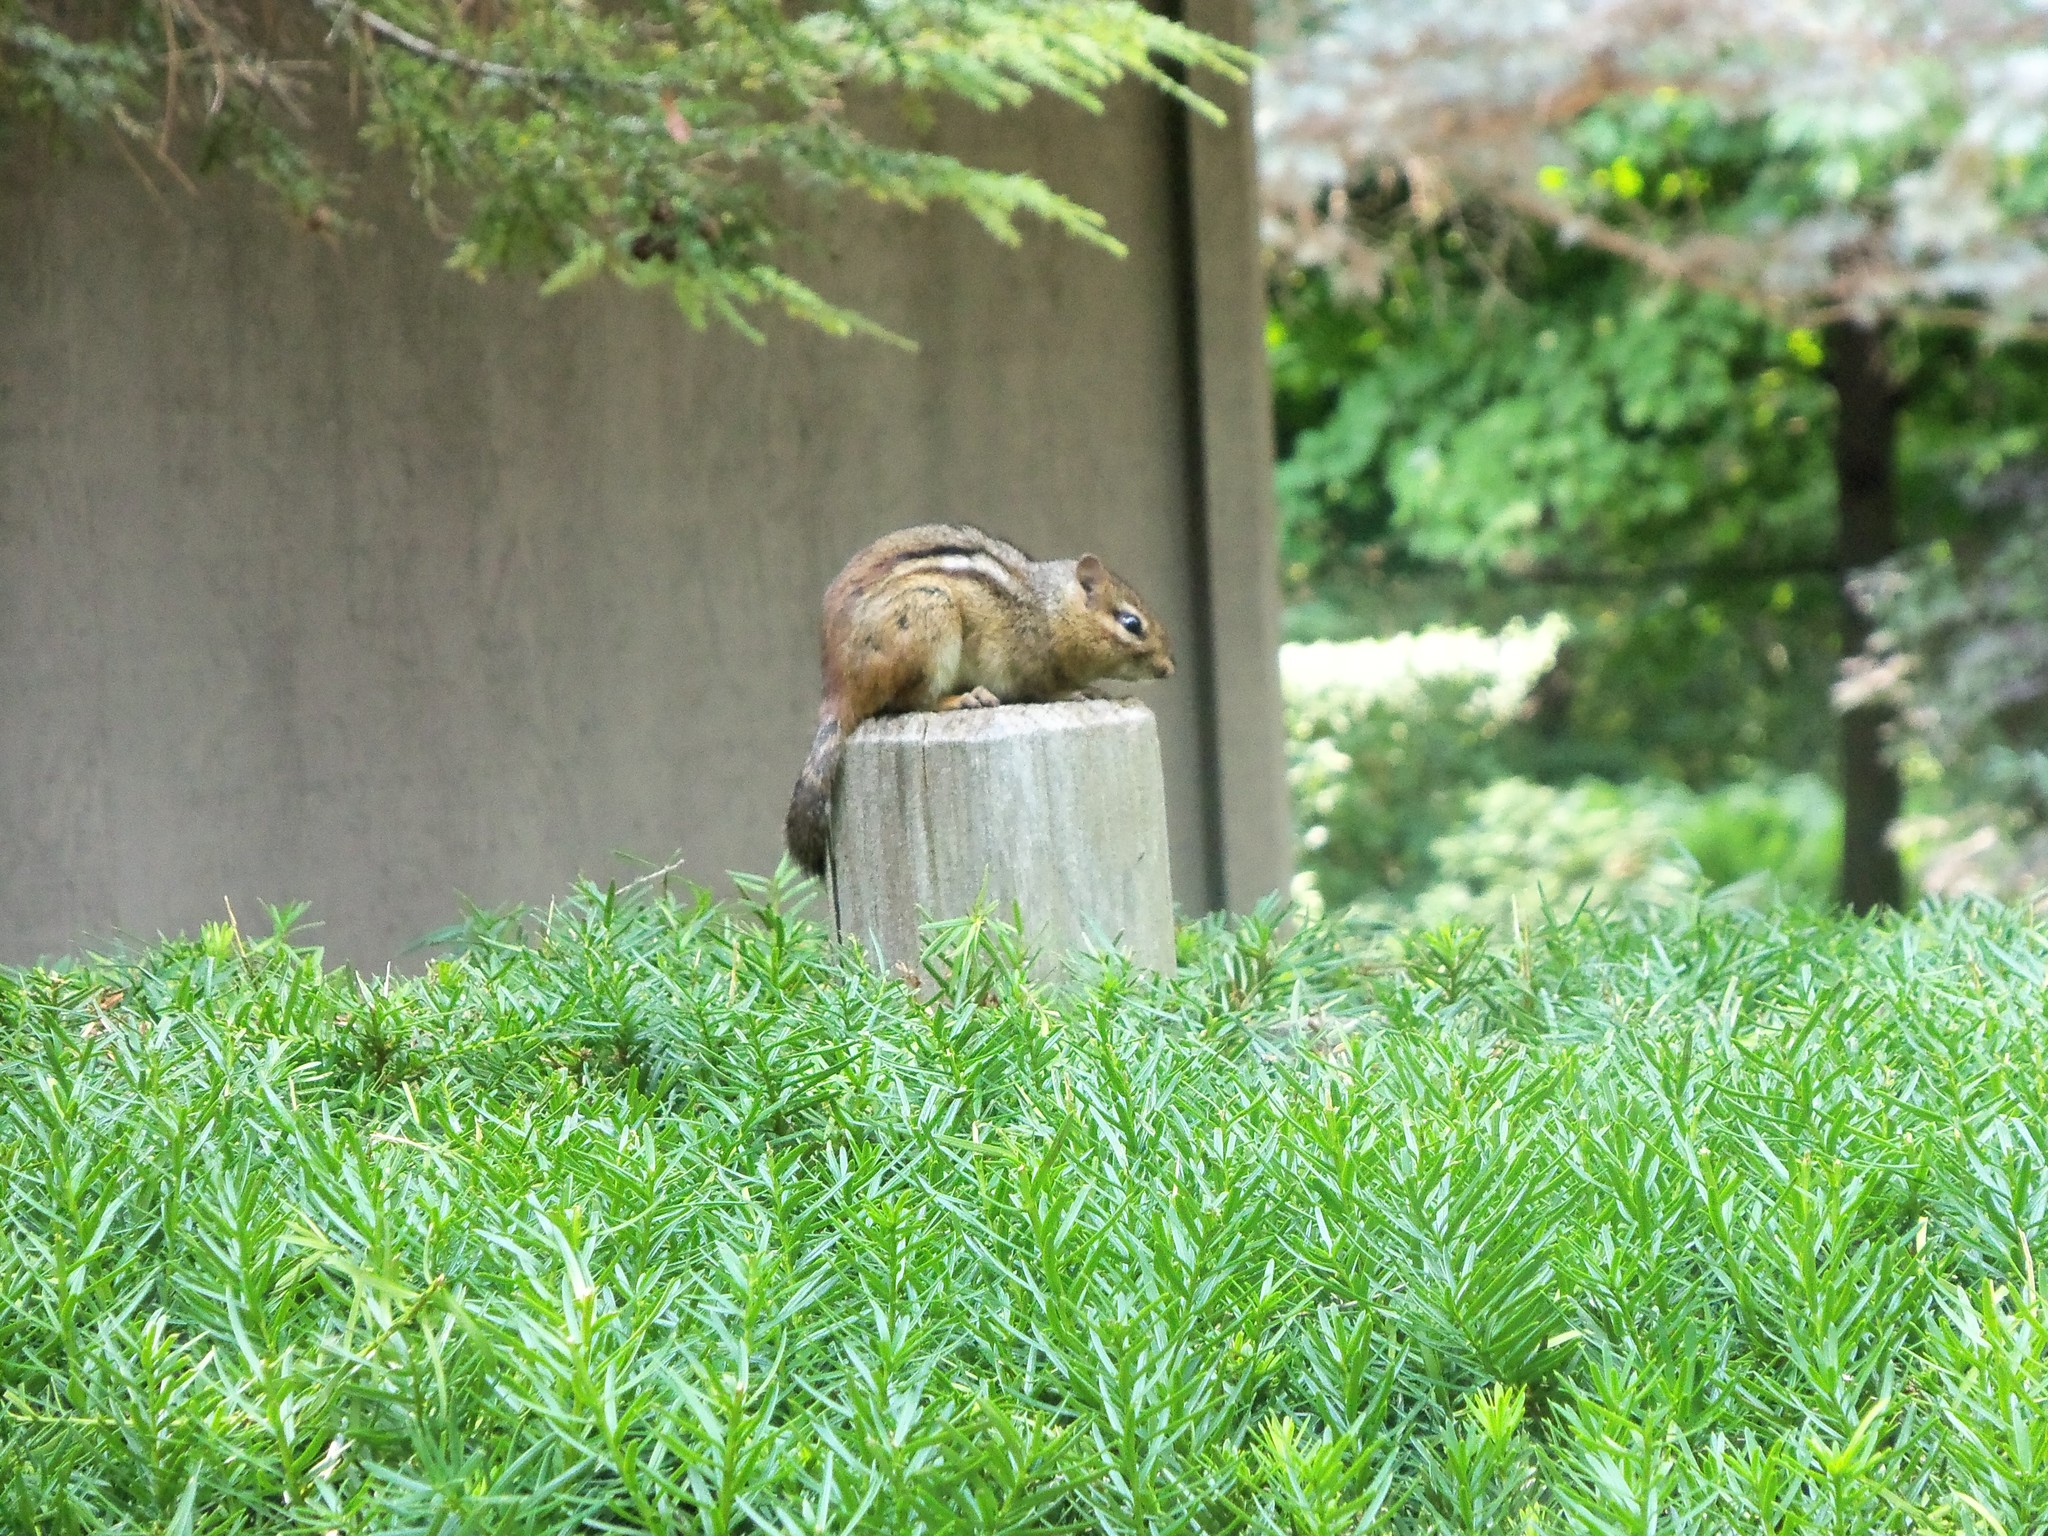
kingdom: Animalia
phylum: Chordata
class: Mammalia
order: Rodentia
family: Sciuridae
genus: Tamias
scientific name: Tamias striatus
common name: Eastern chipmunk
